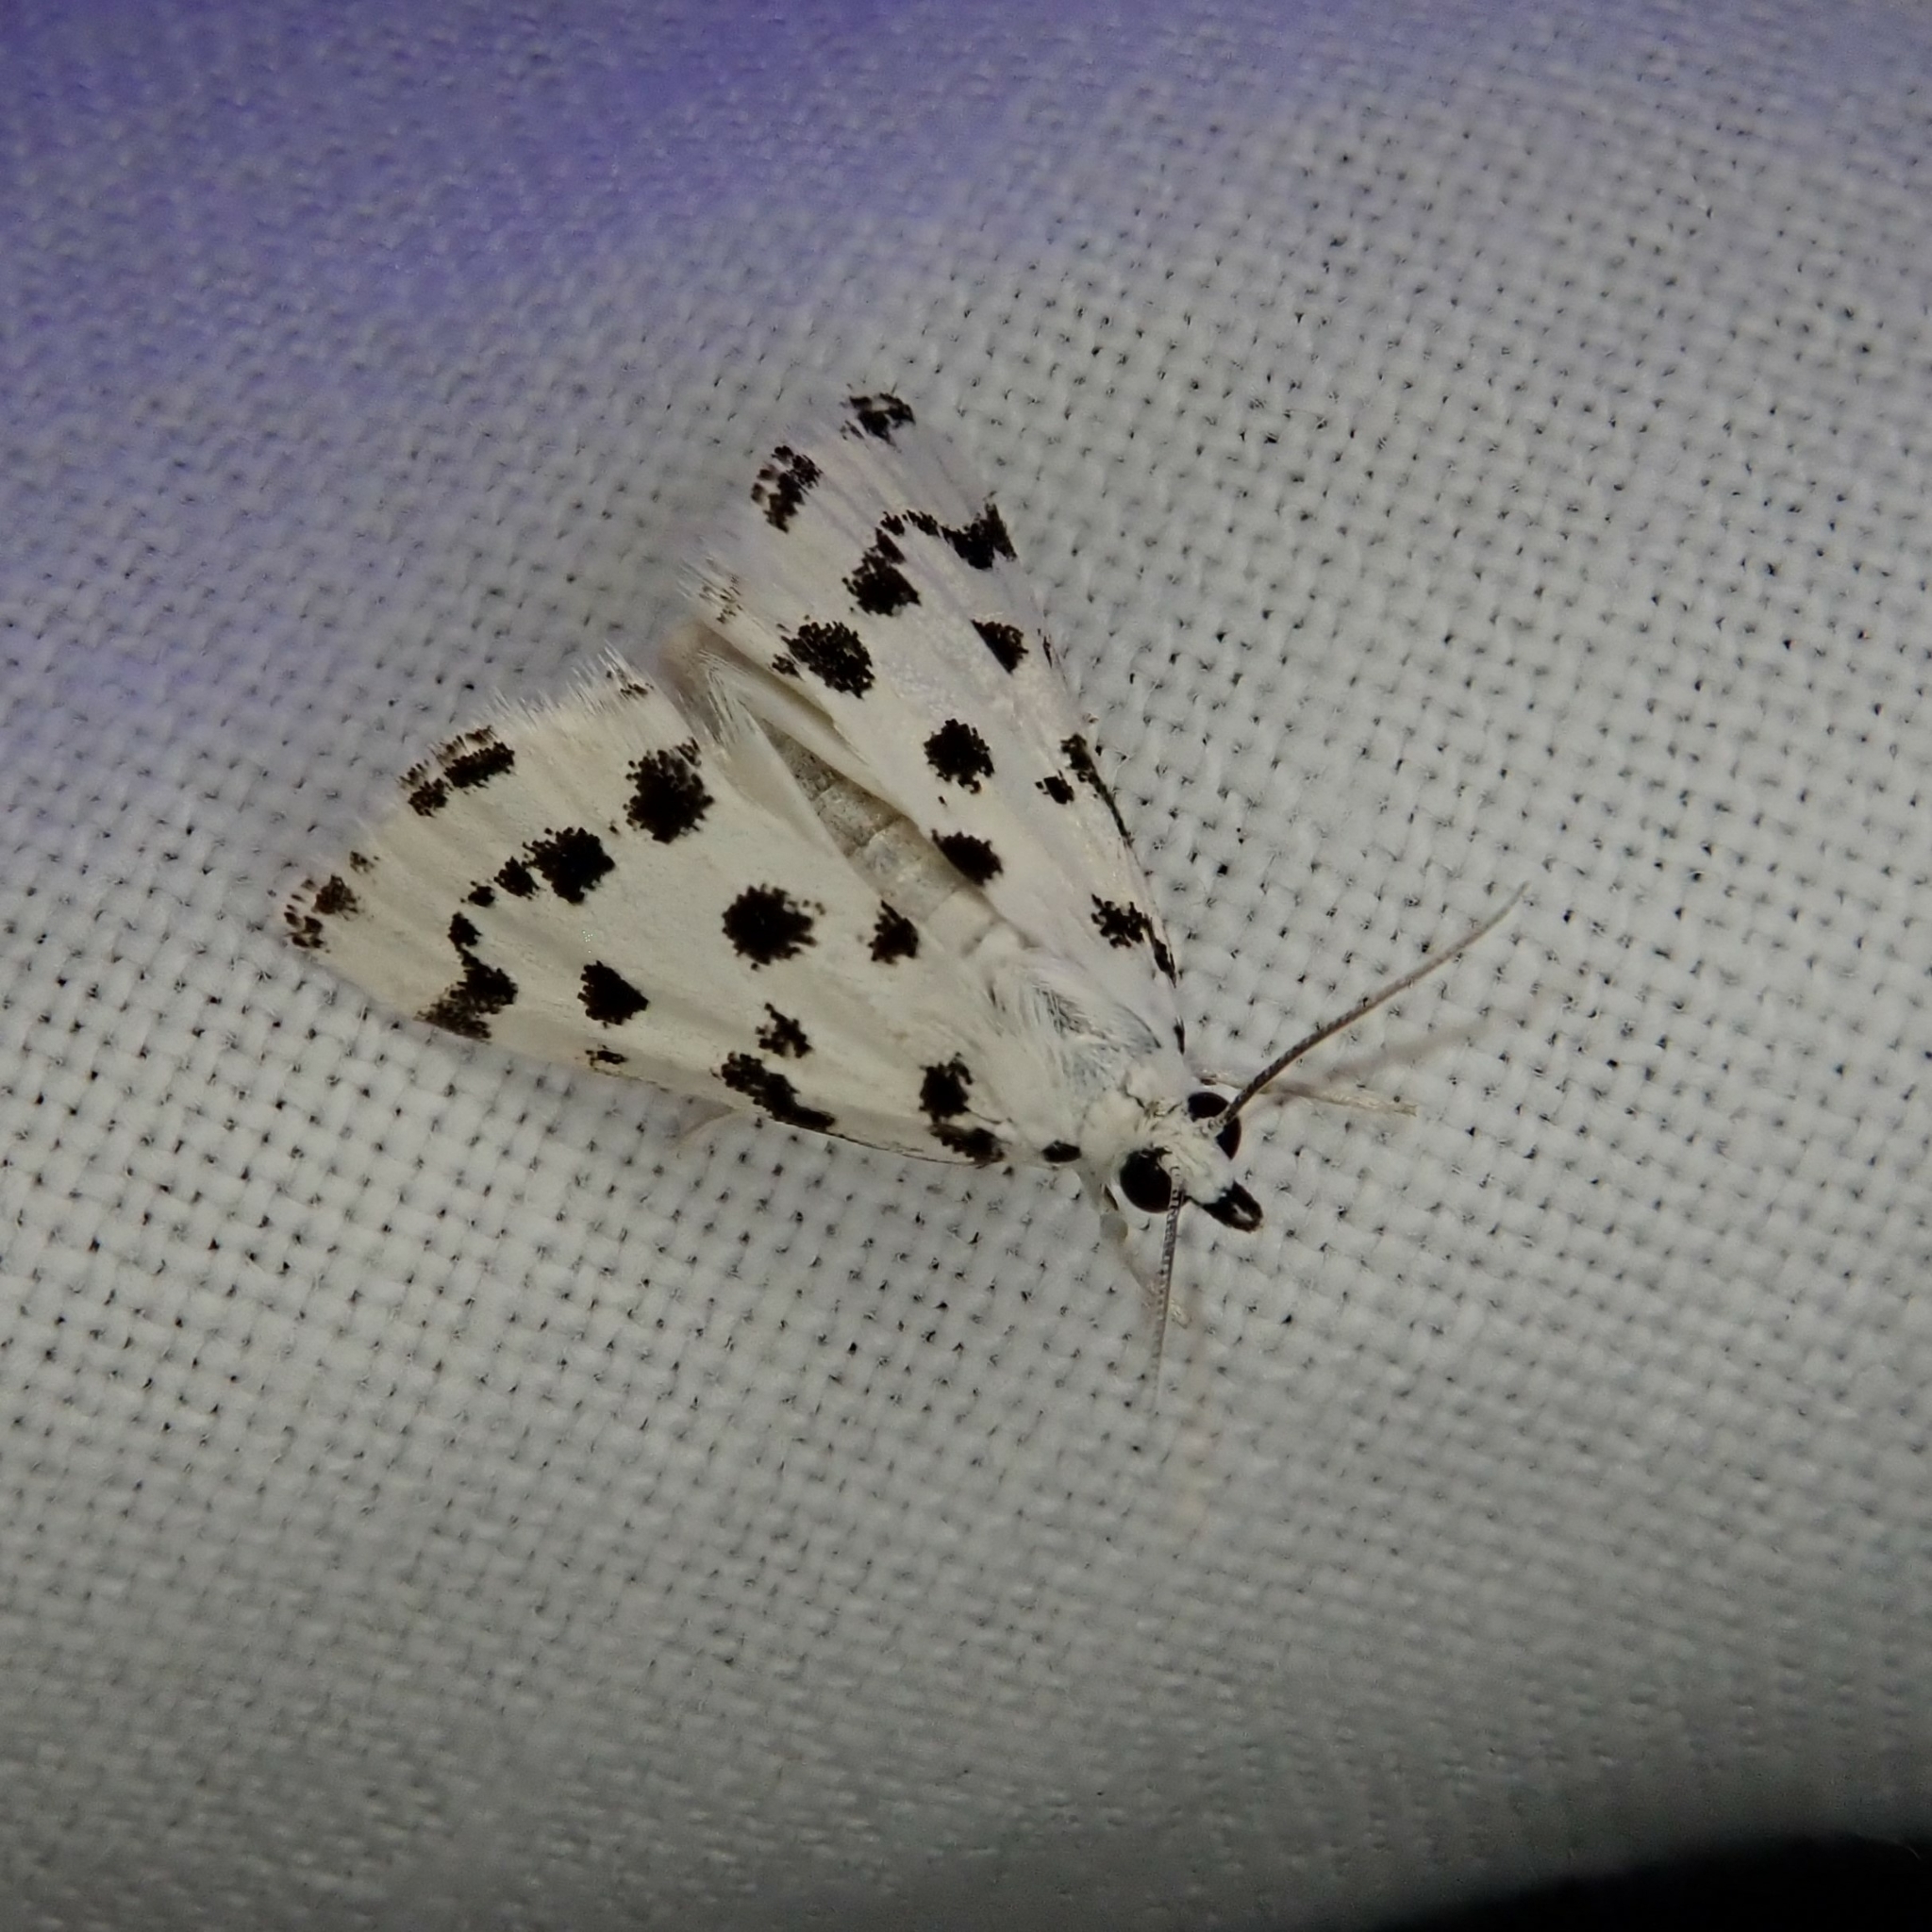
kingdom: Animalia
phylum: Arthropoda
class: Insecta
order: Lepidoptera
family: Crambidae
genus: Eustixia
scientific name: Eustixia pupula
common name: American cabbage pearl
